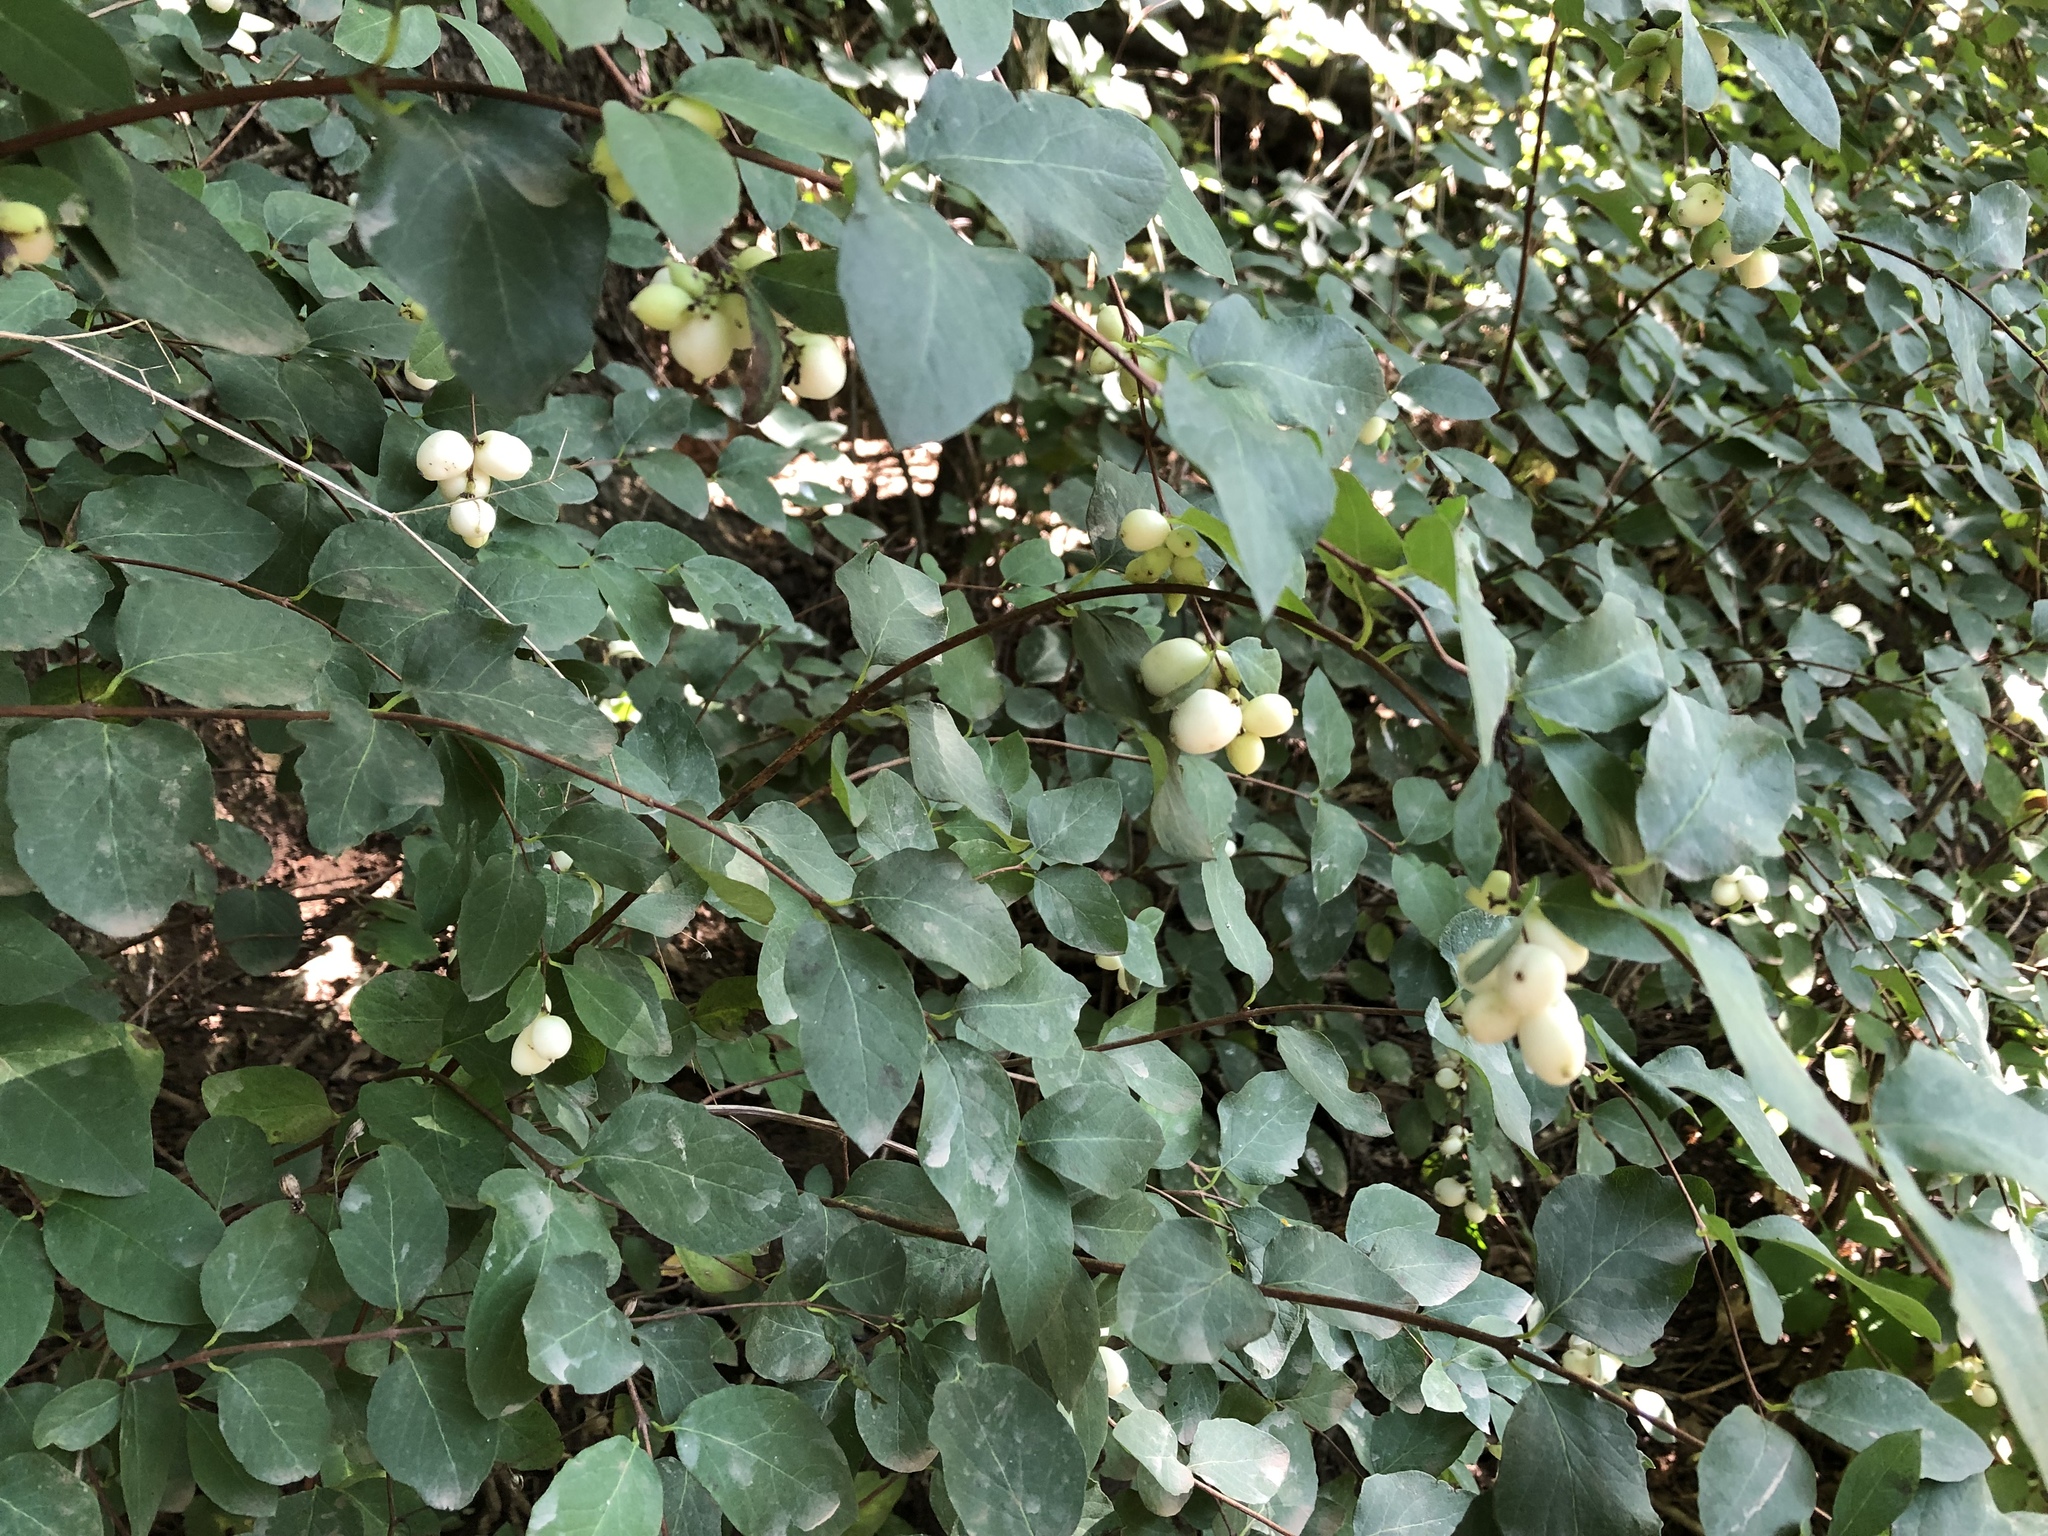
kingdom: Plantae
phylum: Tracheophyta
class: Magnoliopsida
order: Dipsacales
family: Caprifoliaceae
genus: Symphoricarpos
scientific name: Symphoricarpos albus
